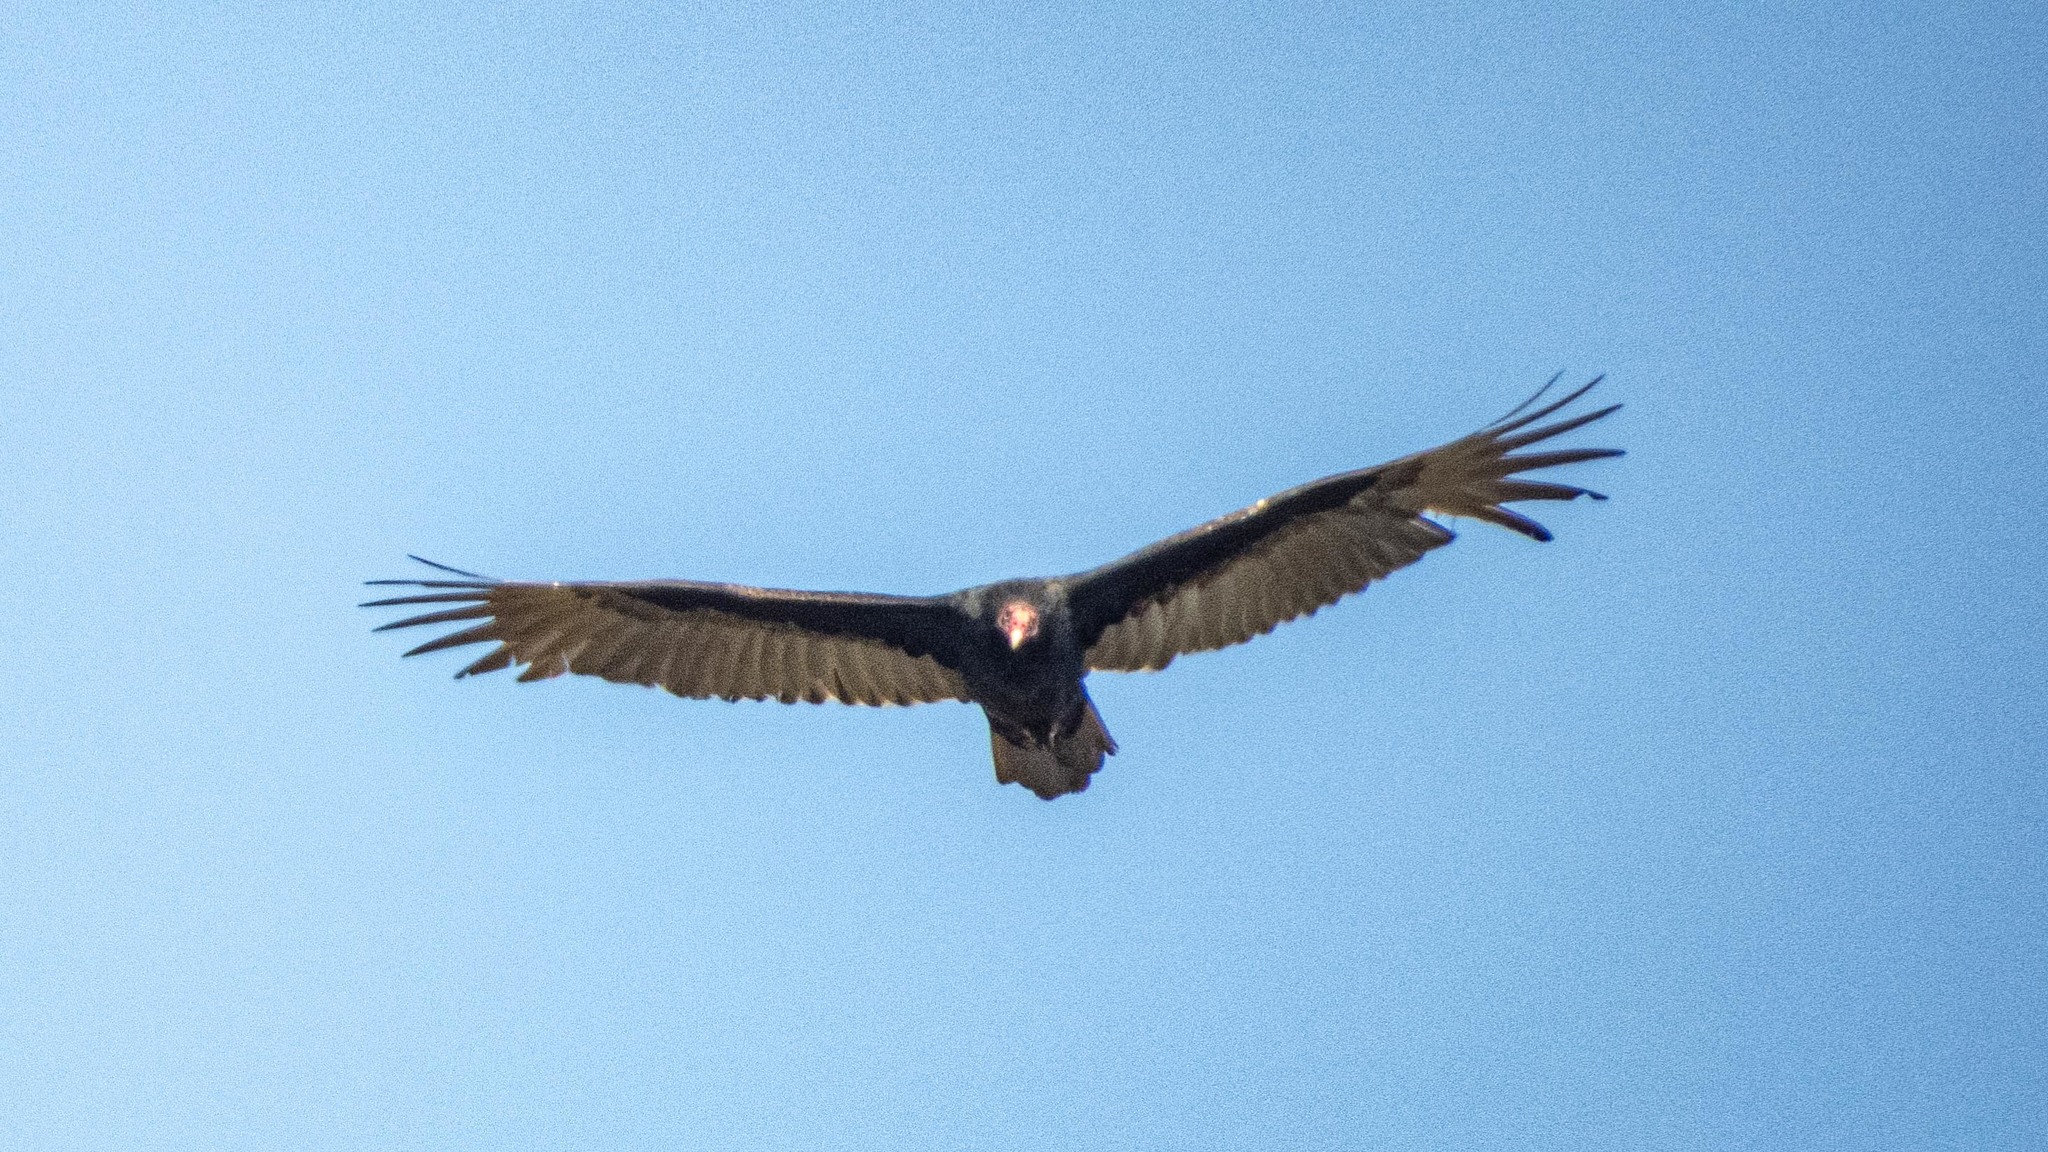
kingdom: Animalia
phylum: Chordata
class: Aves
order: Accipitriformes
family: Cathartidae
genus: Cathartes
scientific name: Cathartes aura
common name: Turkey vulture
